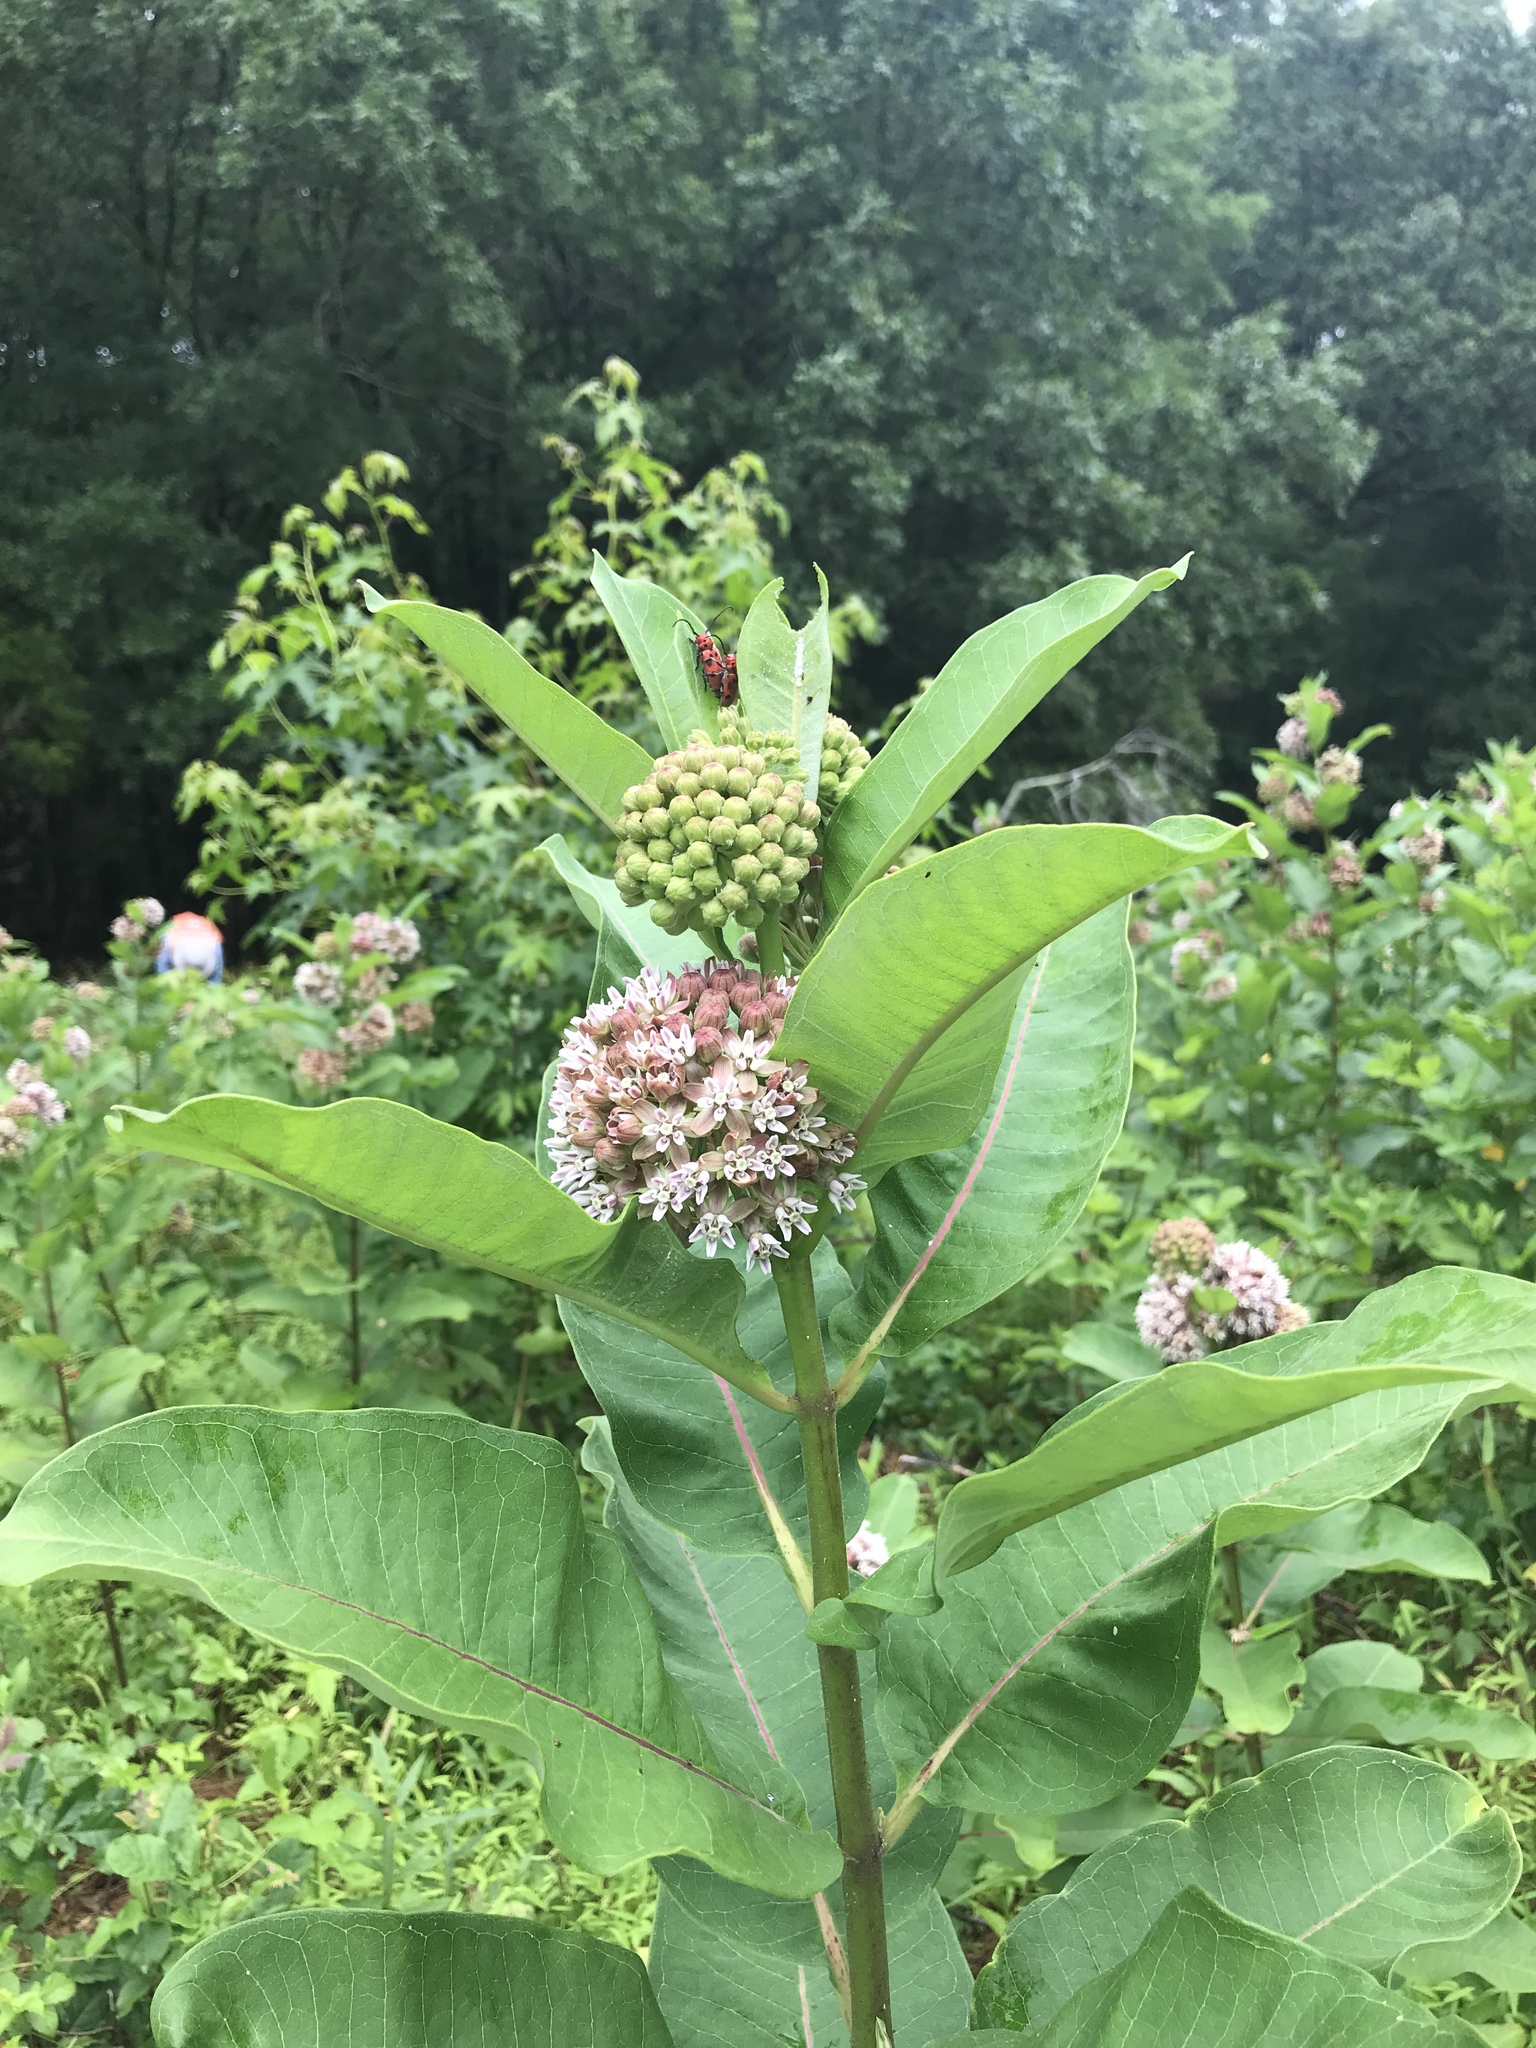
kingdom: Plantae
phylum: Tracheophyta
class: Magnoliopsida
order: Gentianales
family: Apocynaceae
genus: Asclepias
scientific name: Asclepias syriaca
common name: Common milkweed
